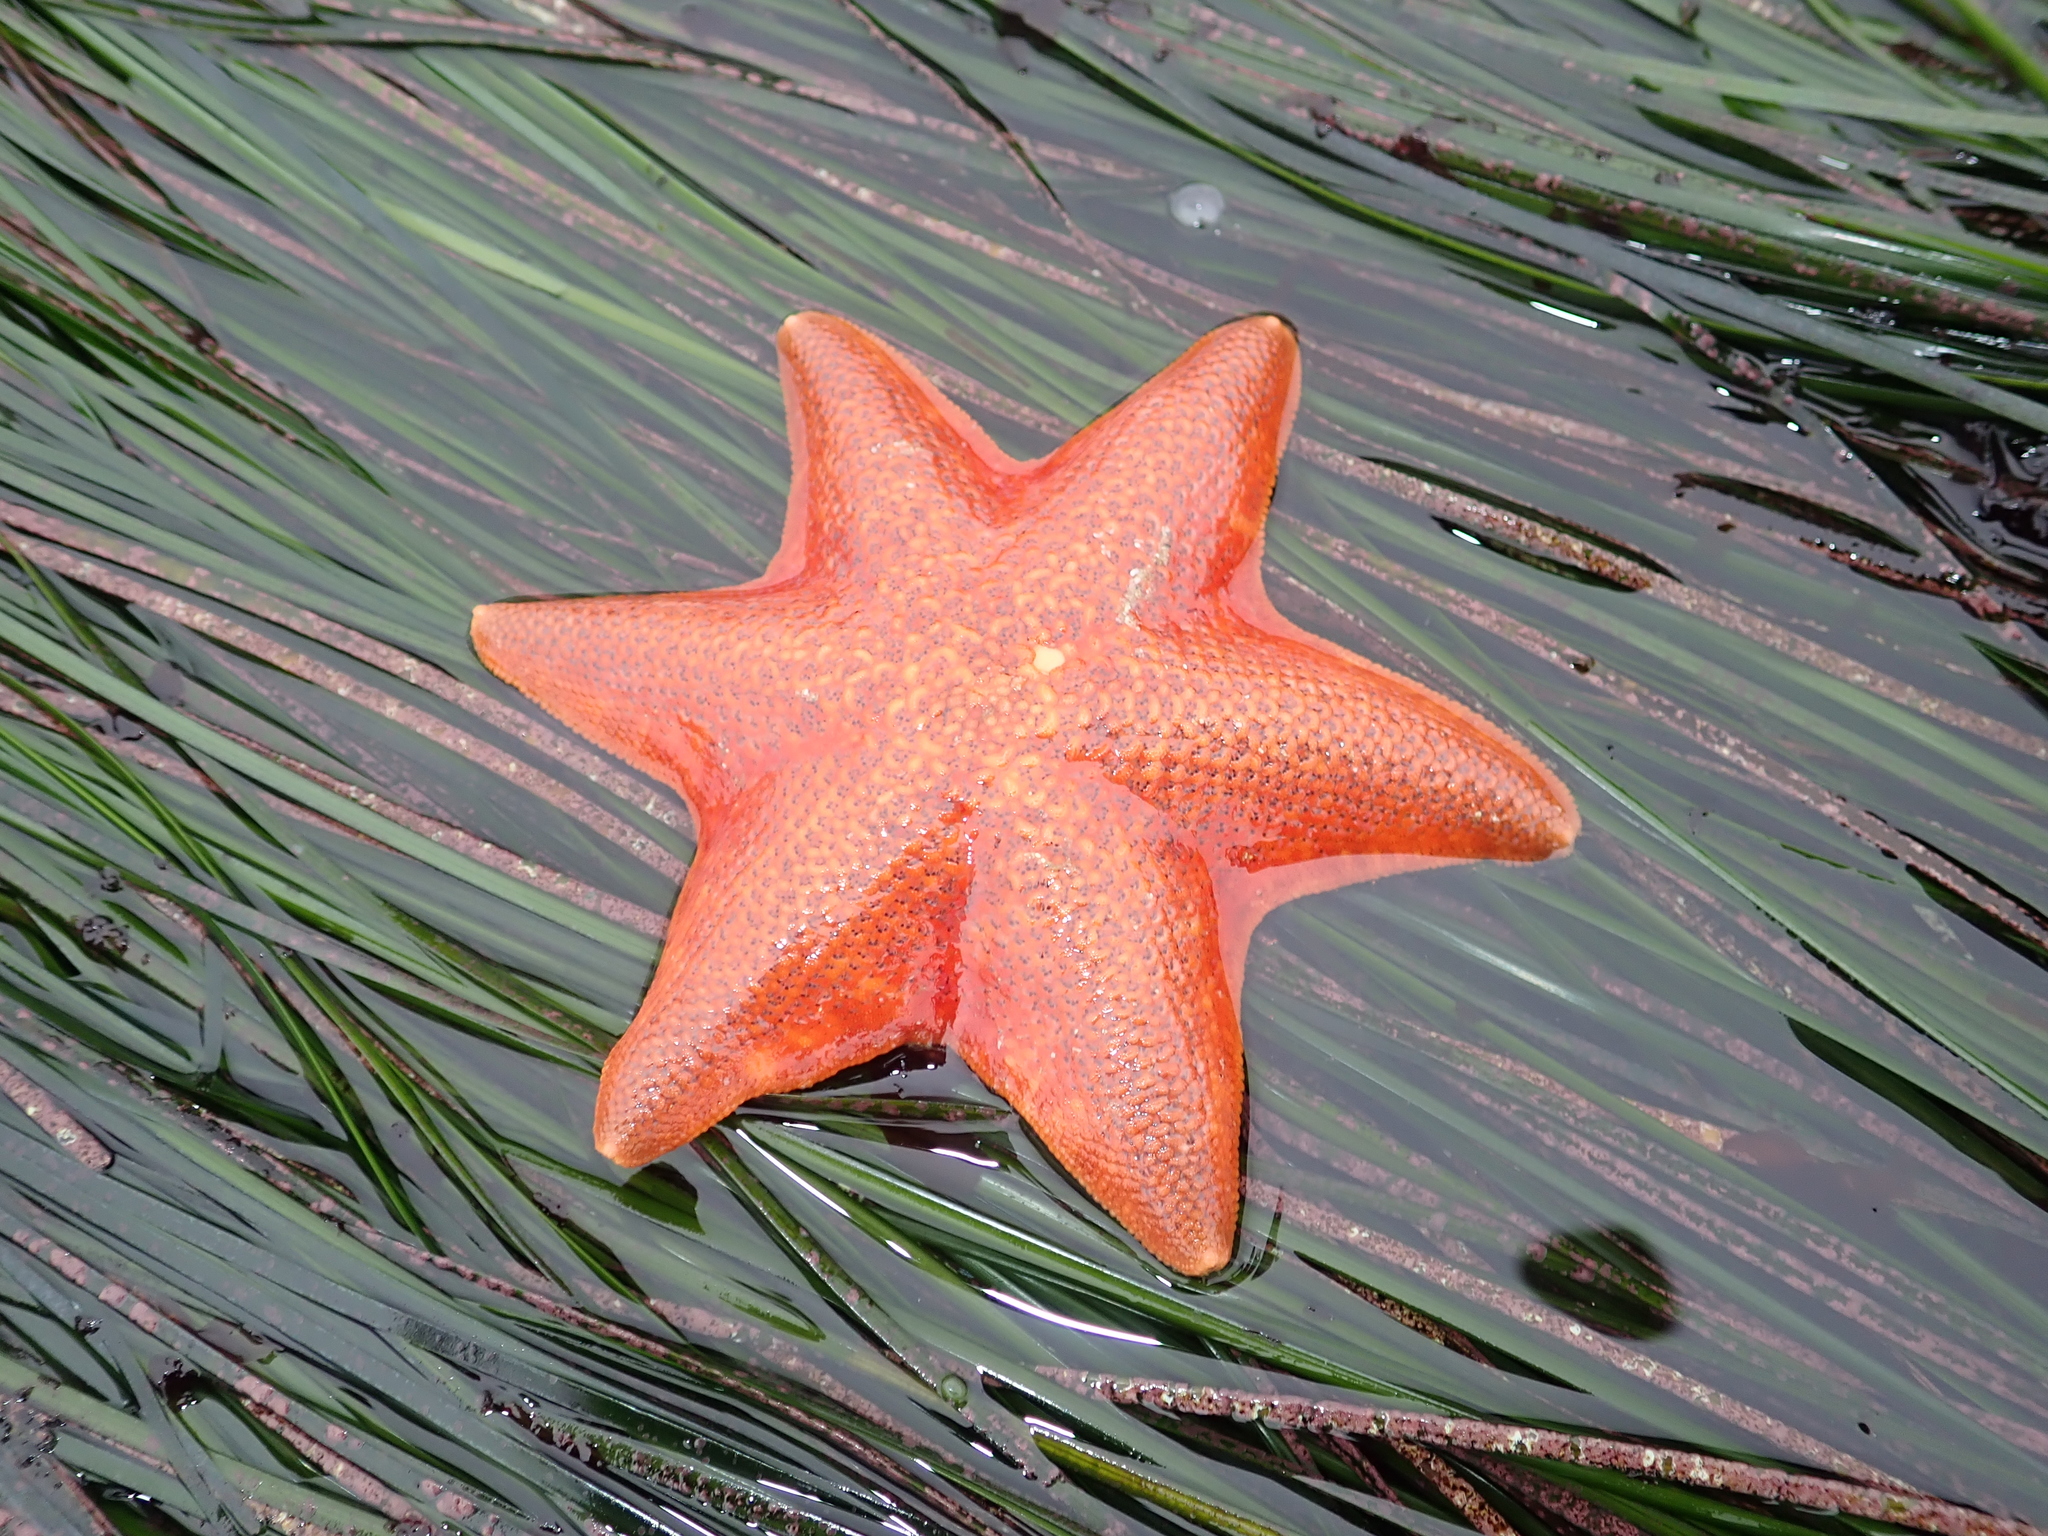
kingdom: Animalia
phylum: Echinodermata
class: Asteroidea
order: Valvatida
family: Asterinidae
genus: Patiria
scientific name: Patiria miniata
